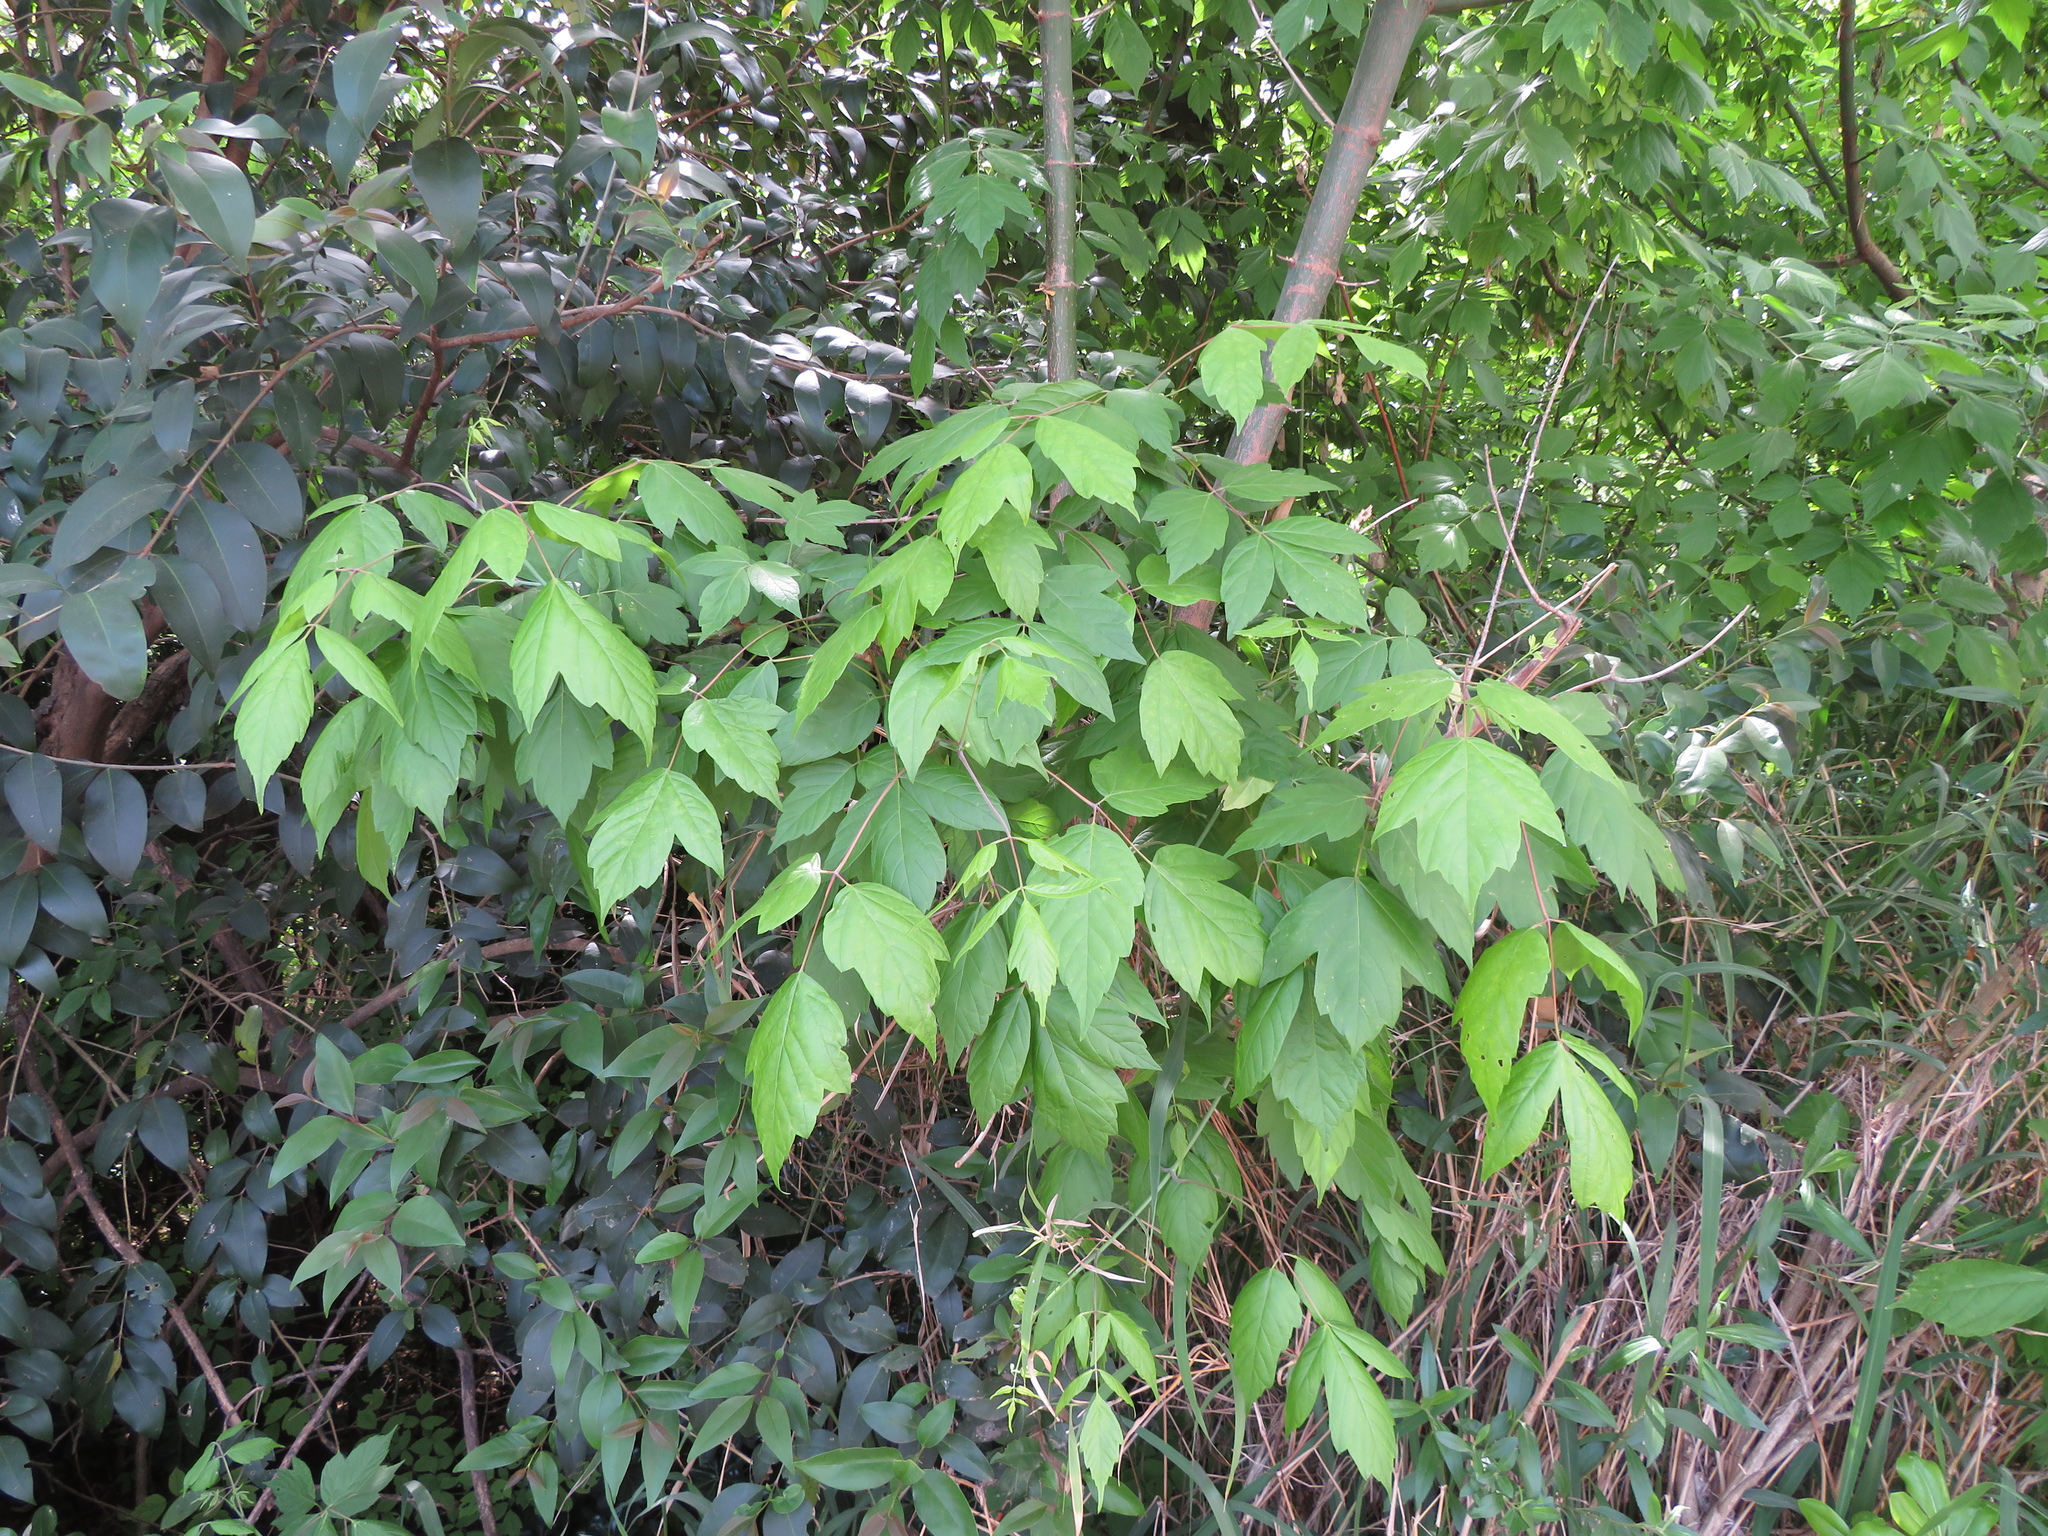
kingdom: Plantae
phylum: Tracheophyta
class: Magnoliopsida
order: Sapindales
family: Sapindaceae
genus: Acer
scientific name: Acer negundo
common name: Ashleaf maple
